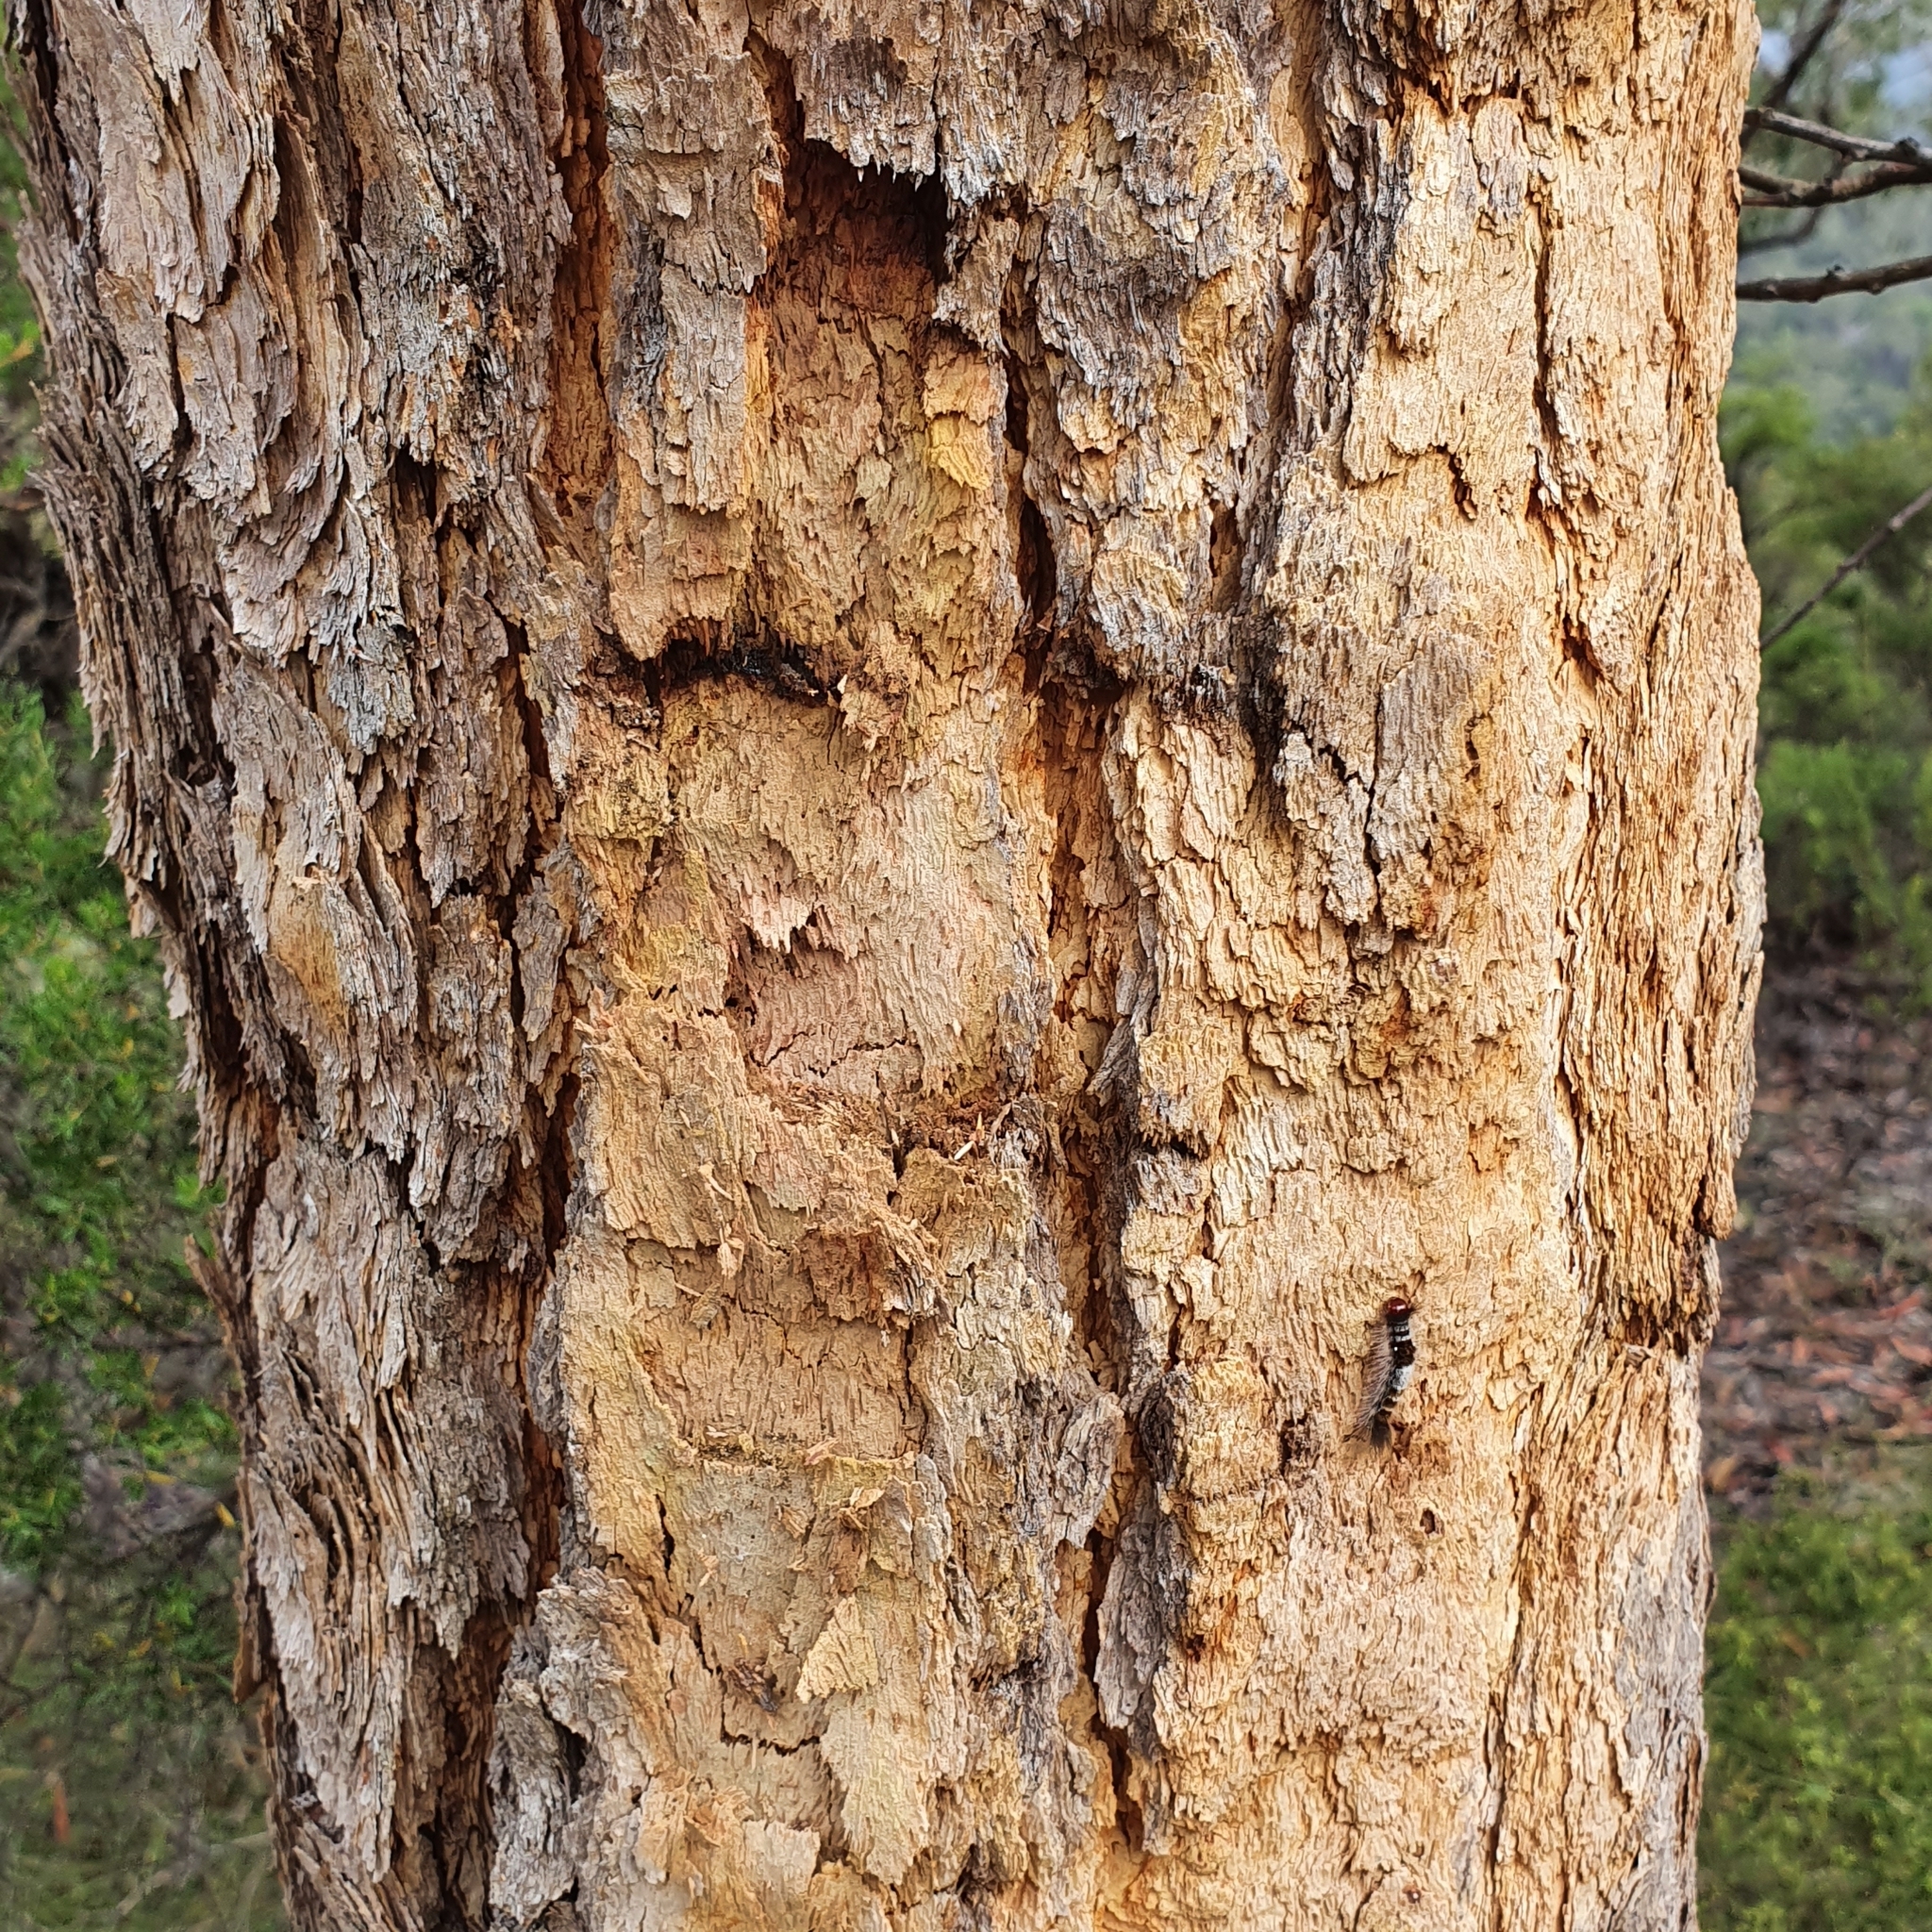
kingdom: Plantae
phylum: Tracheophyta
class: Magnoliopsida
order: Myrtales
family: Myrtaceae
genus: Corymbia
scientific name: Corymbia eximia
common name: Yellow bloodwood
